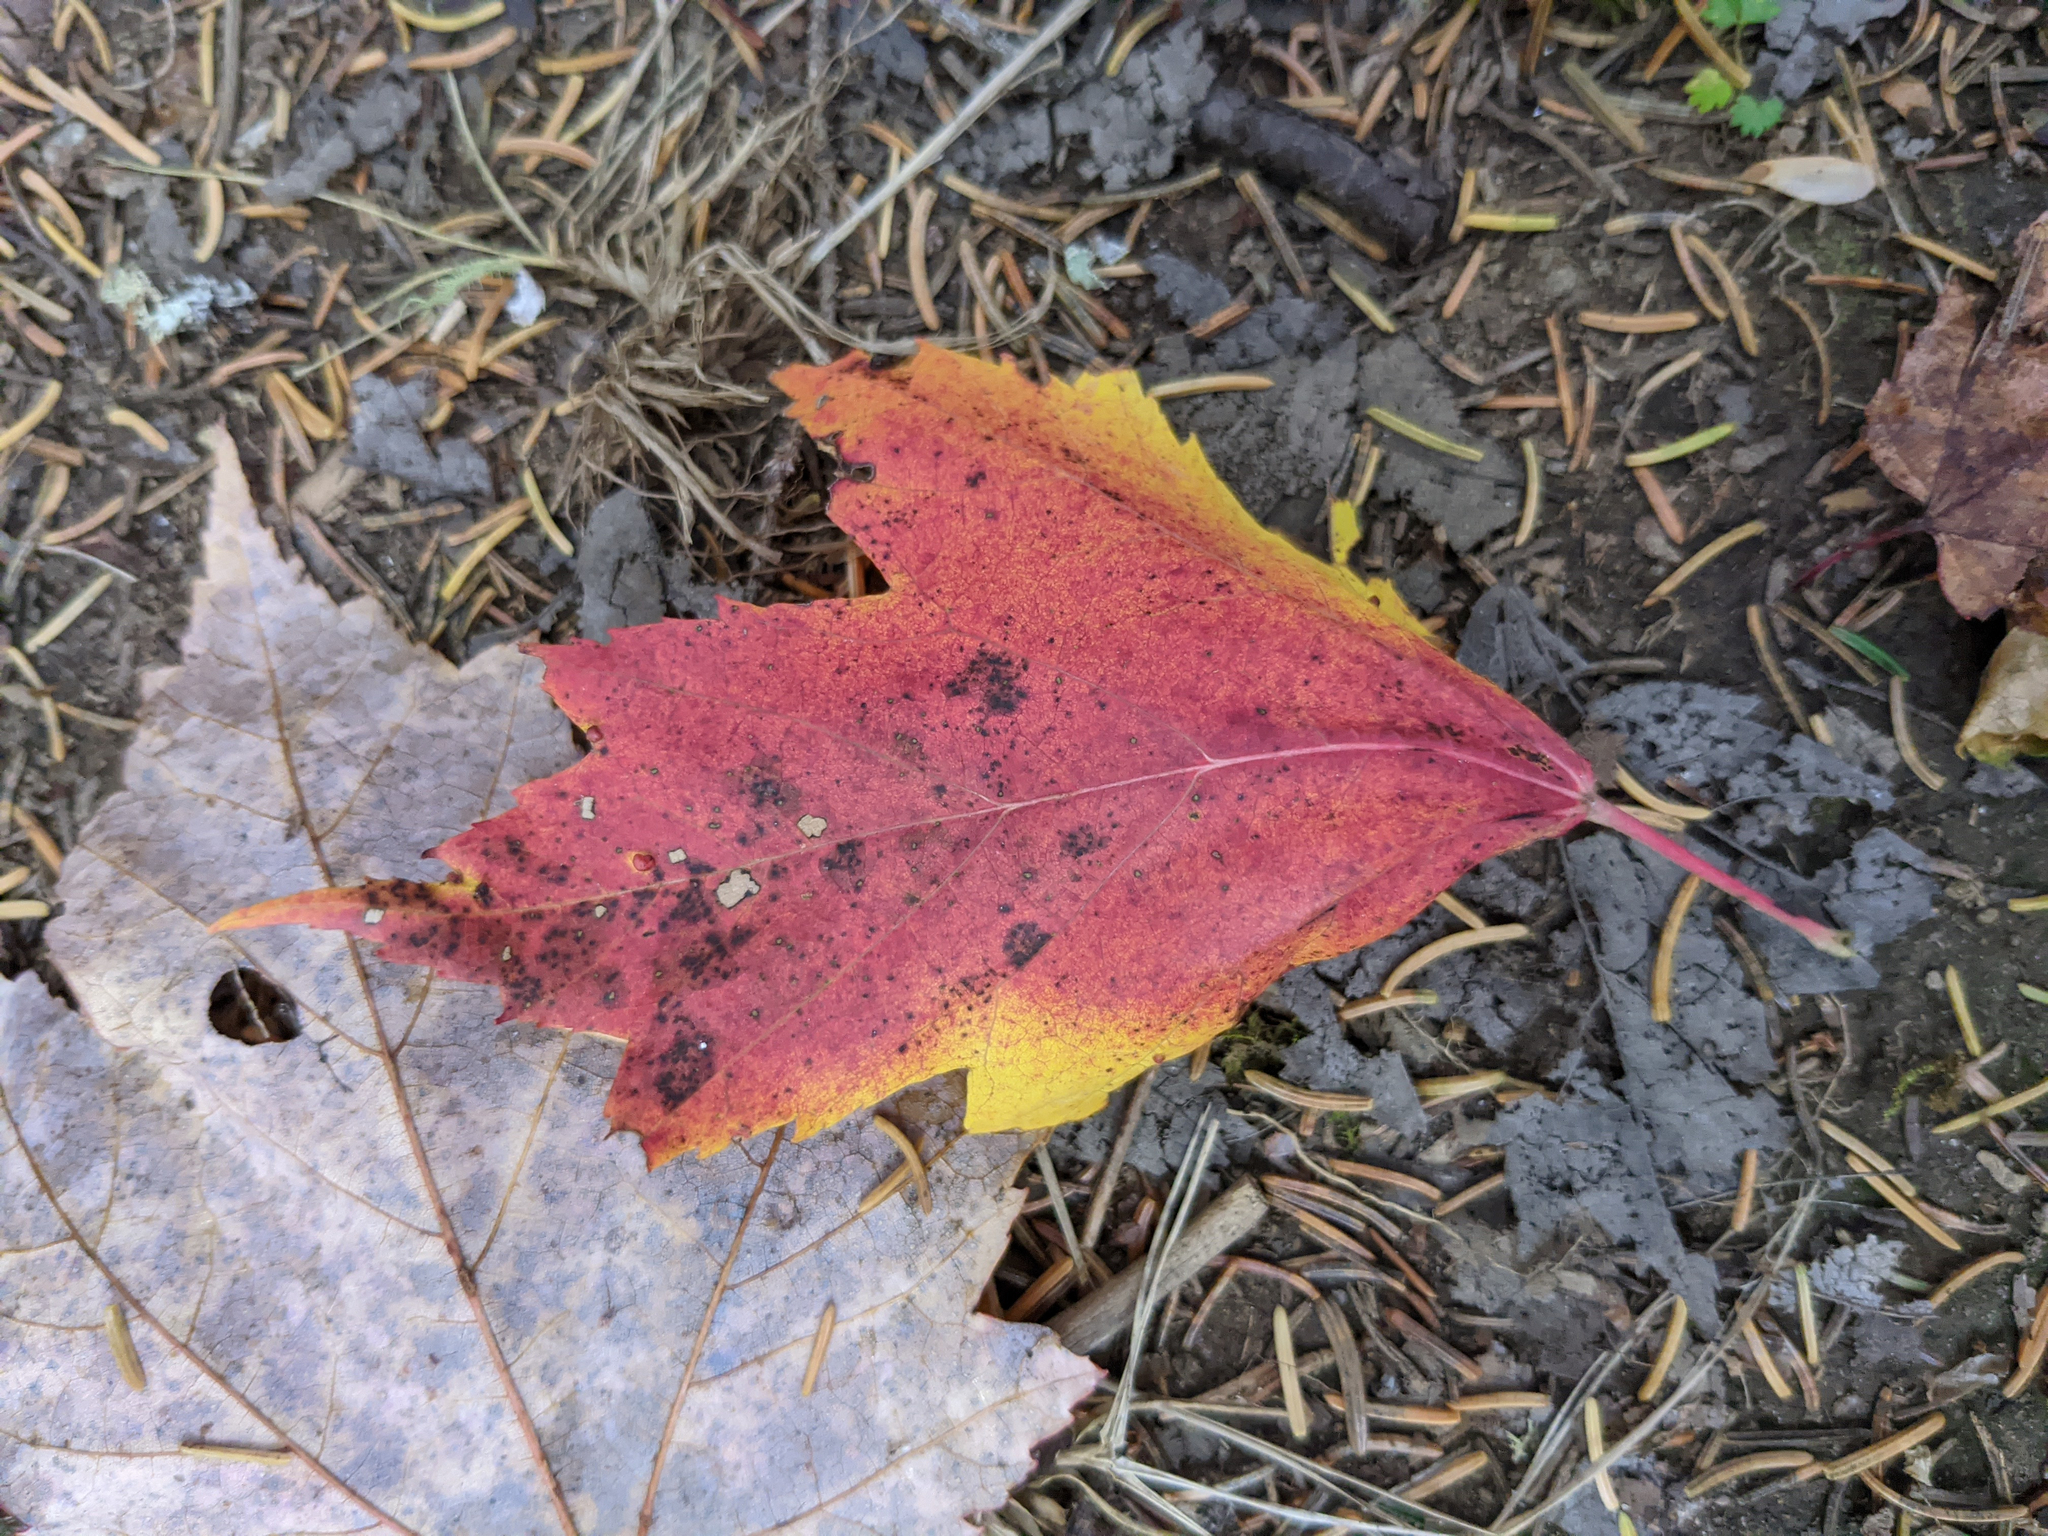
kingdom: Plantae
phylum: Tracheophyta
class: Magnoliopsida
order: Sapindales
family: Sapindaceae
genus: Acer
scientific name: Acer rubrum
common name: Red maple
